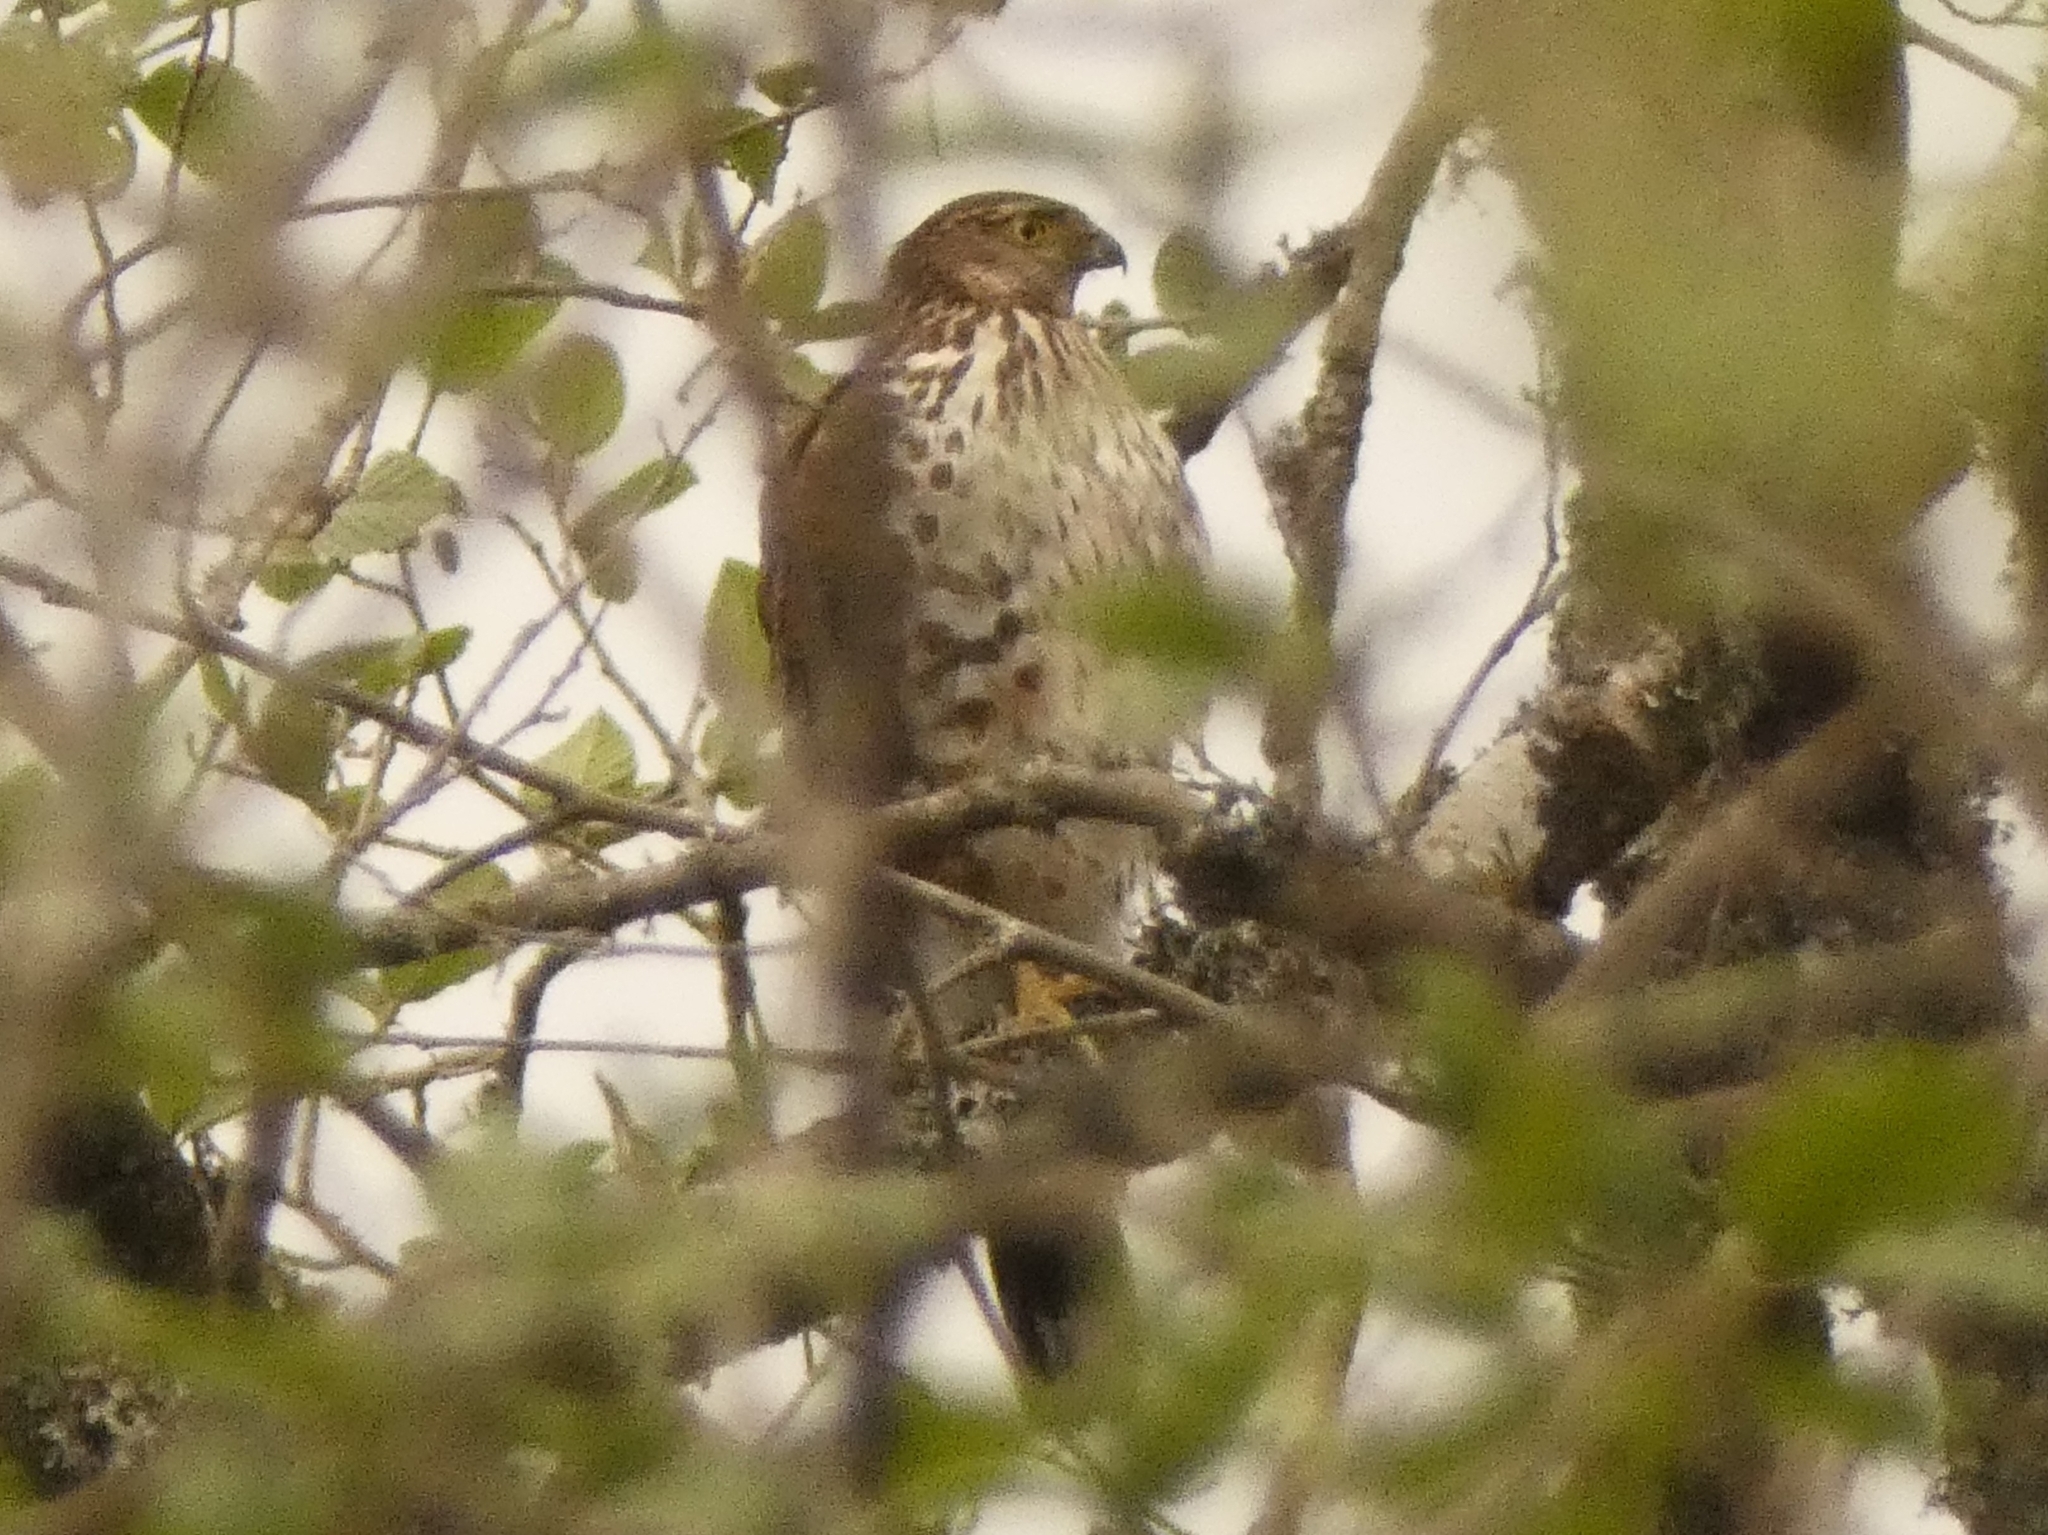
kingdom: Animalia
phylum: Chordata
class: Aves
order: Accipitriformes
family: Accipitridae
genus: Accipiter
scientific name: Accipiter bicolor
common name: Bicolored hawk
